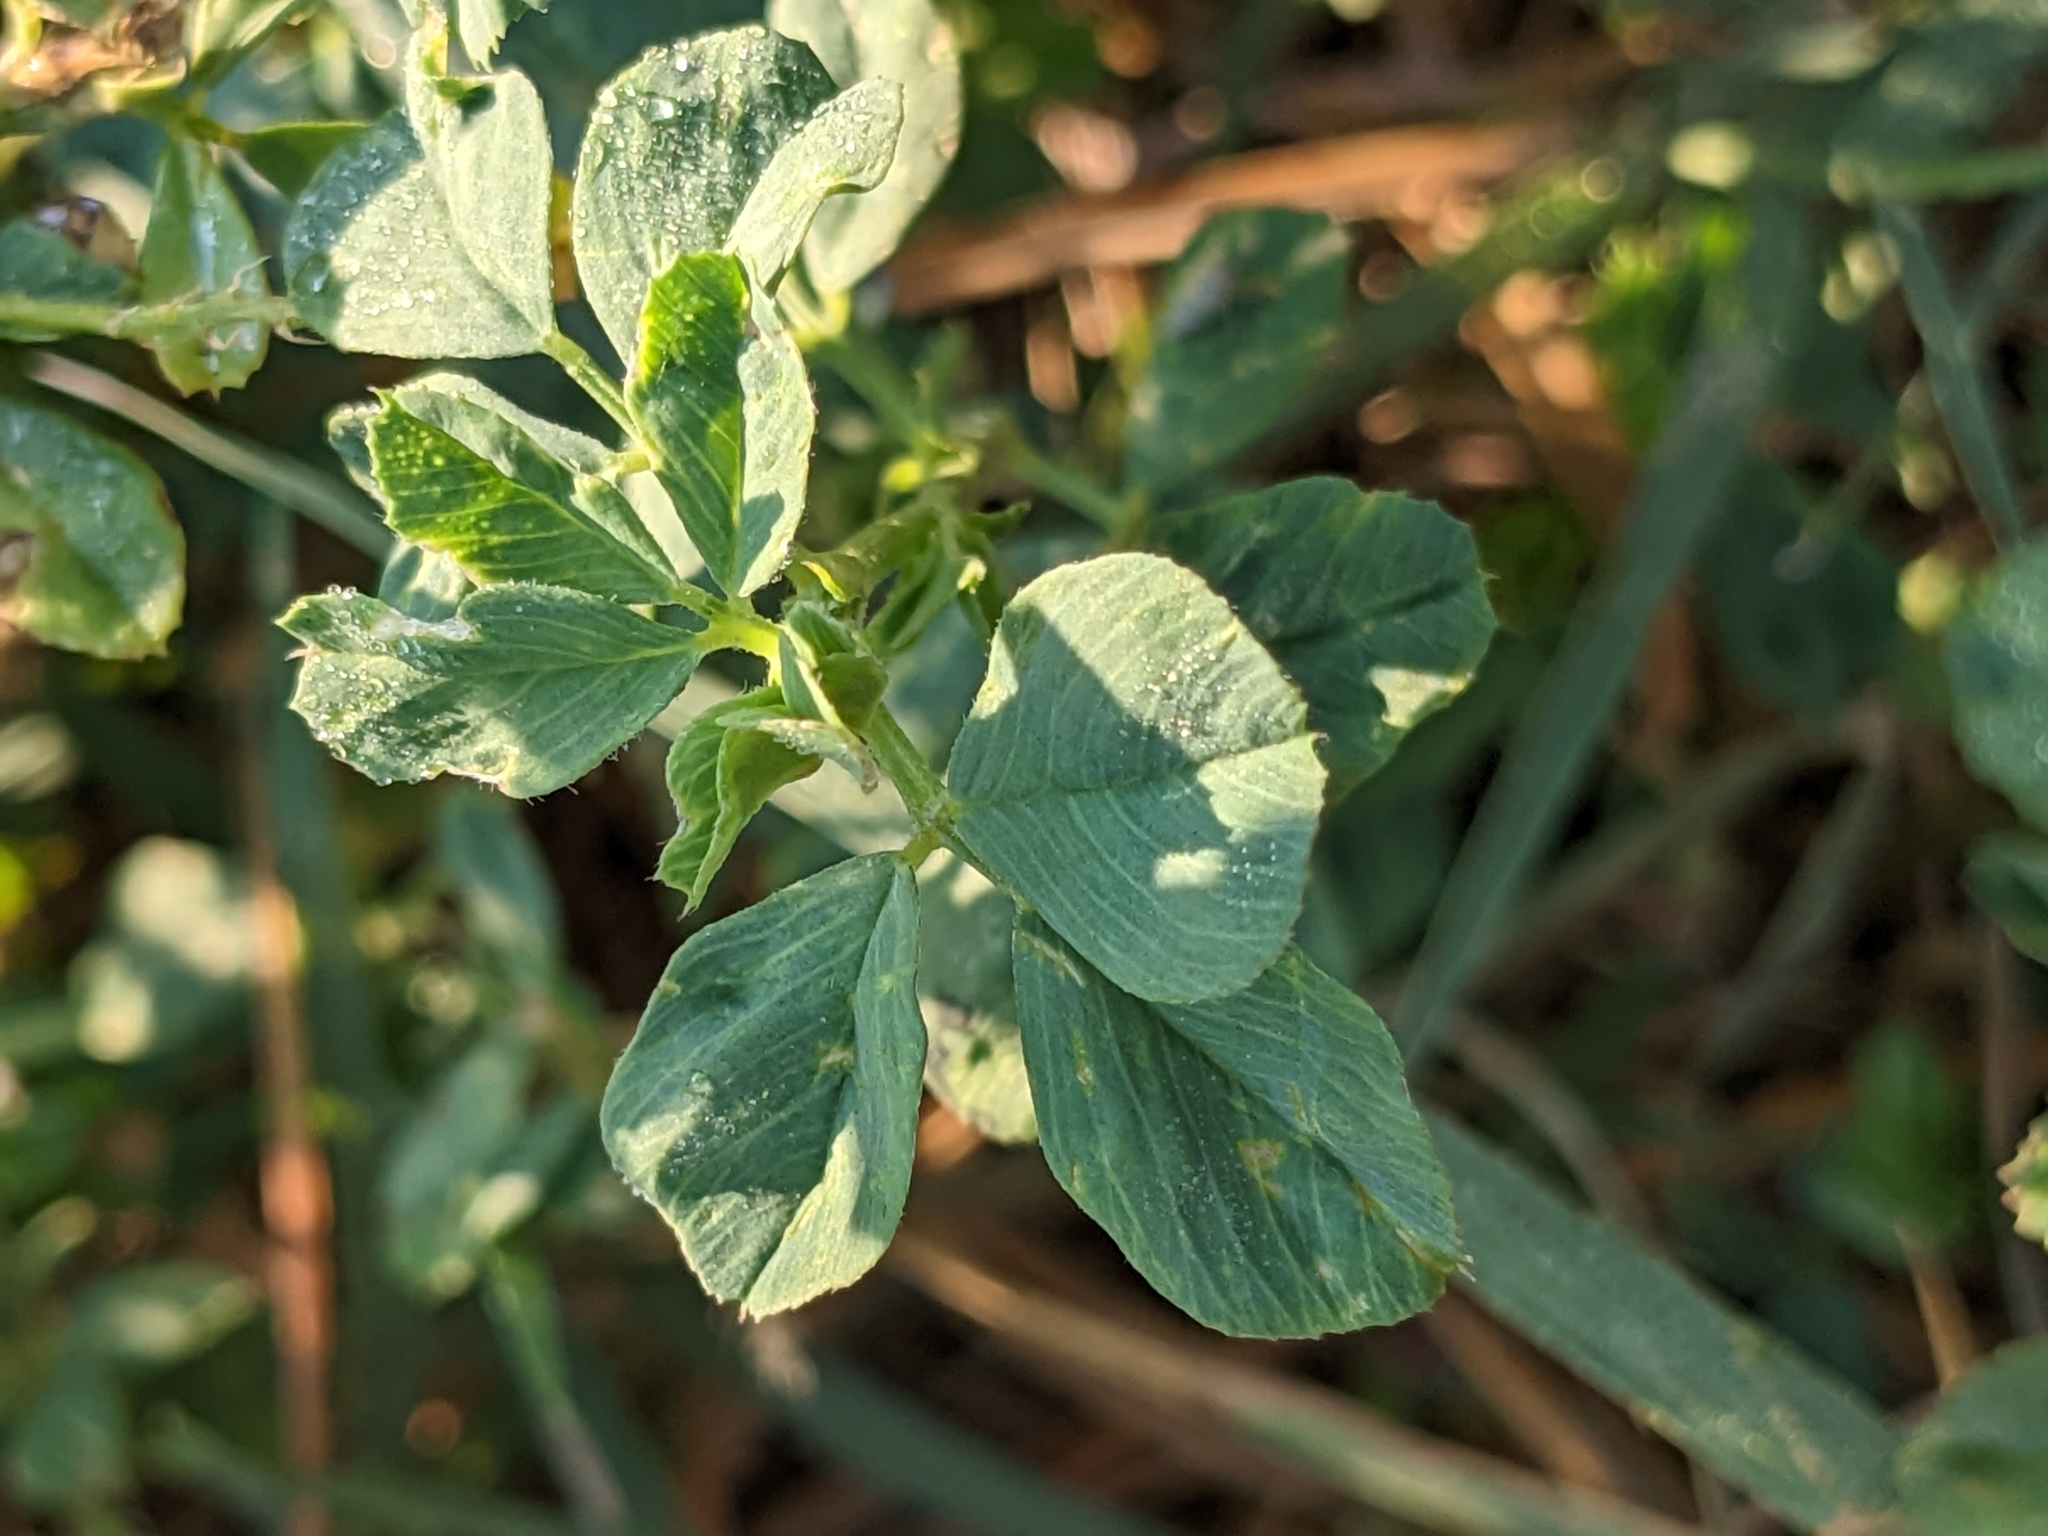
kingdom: Plantae
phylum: Tracheophyta
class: Magnoliopsida
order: Fabales
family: Fabaceae
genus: Medicago
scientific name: Medicago sativa
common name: Alfalfa
